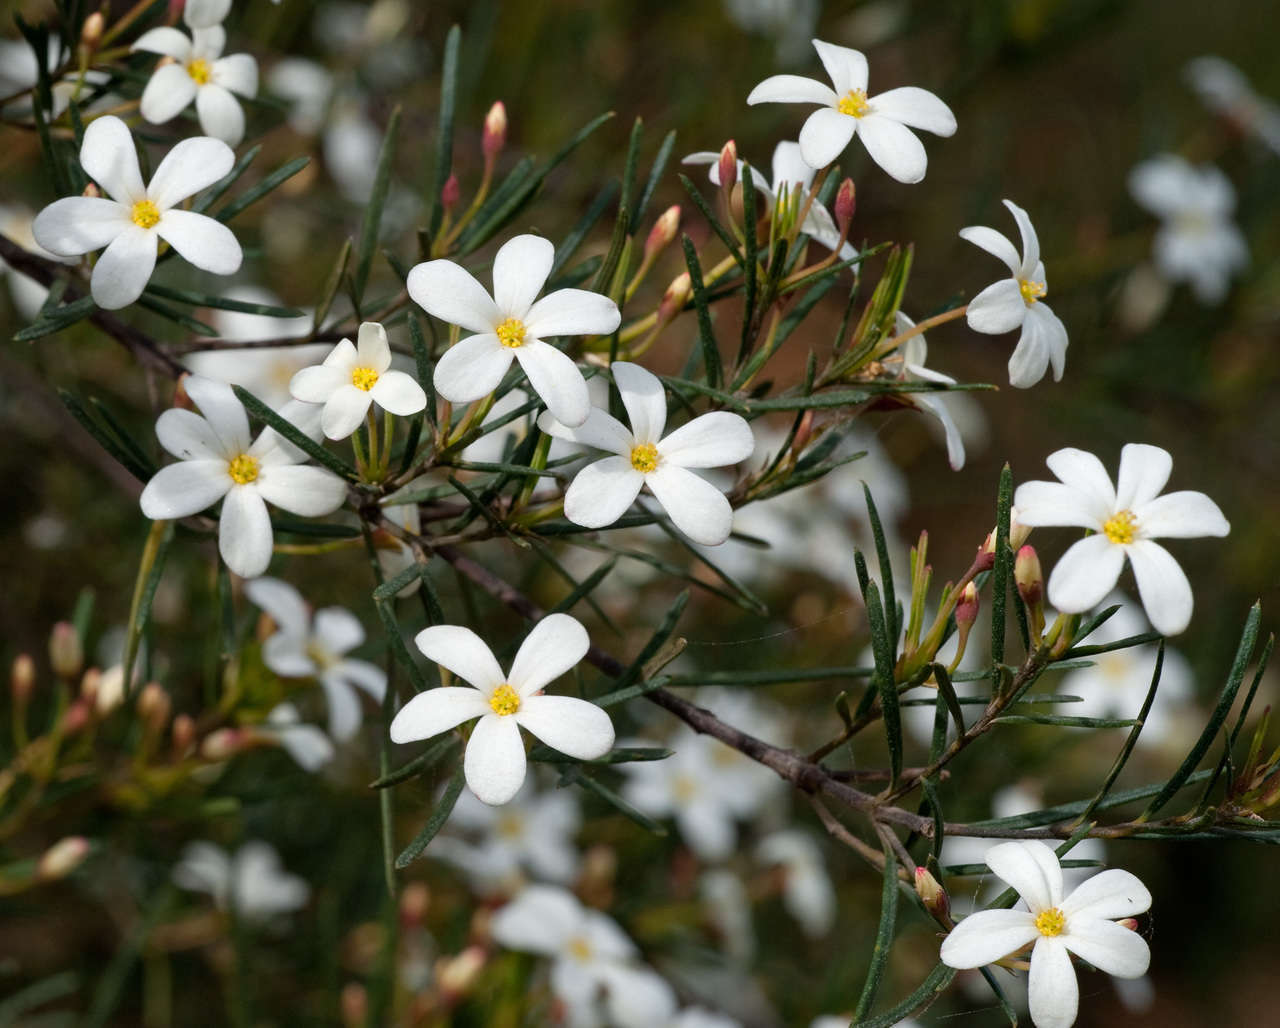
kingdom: Plantae
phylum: Tracheophyta
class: Magnoliopsida
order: Malpighiales
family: Euphorbiaceae
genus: Ricinocarpos
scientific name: Ricinocarpos pinifolius
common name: Weddingbush
